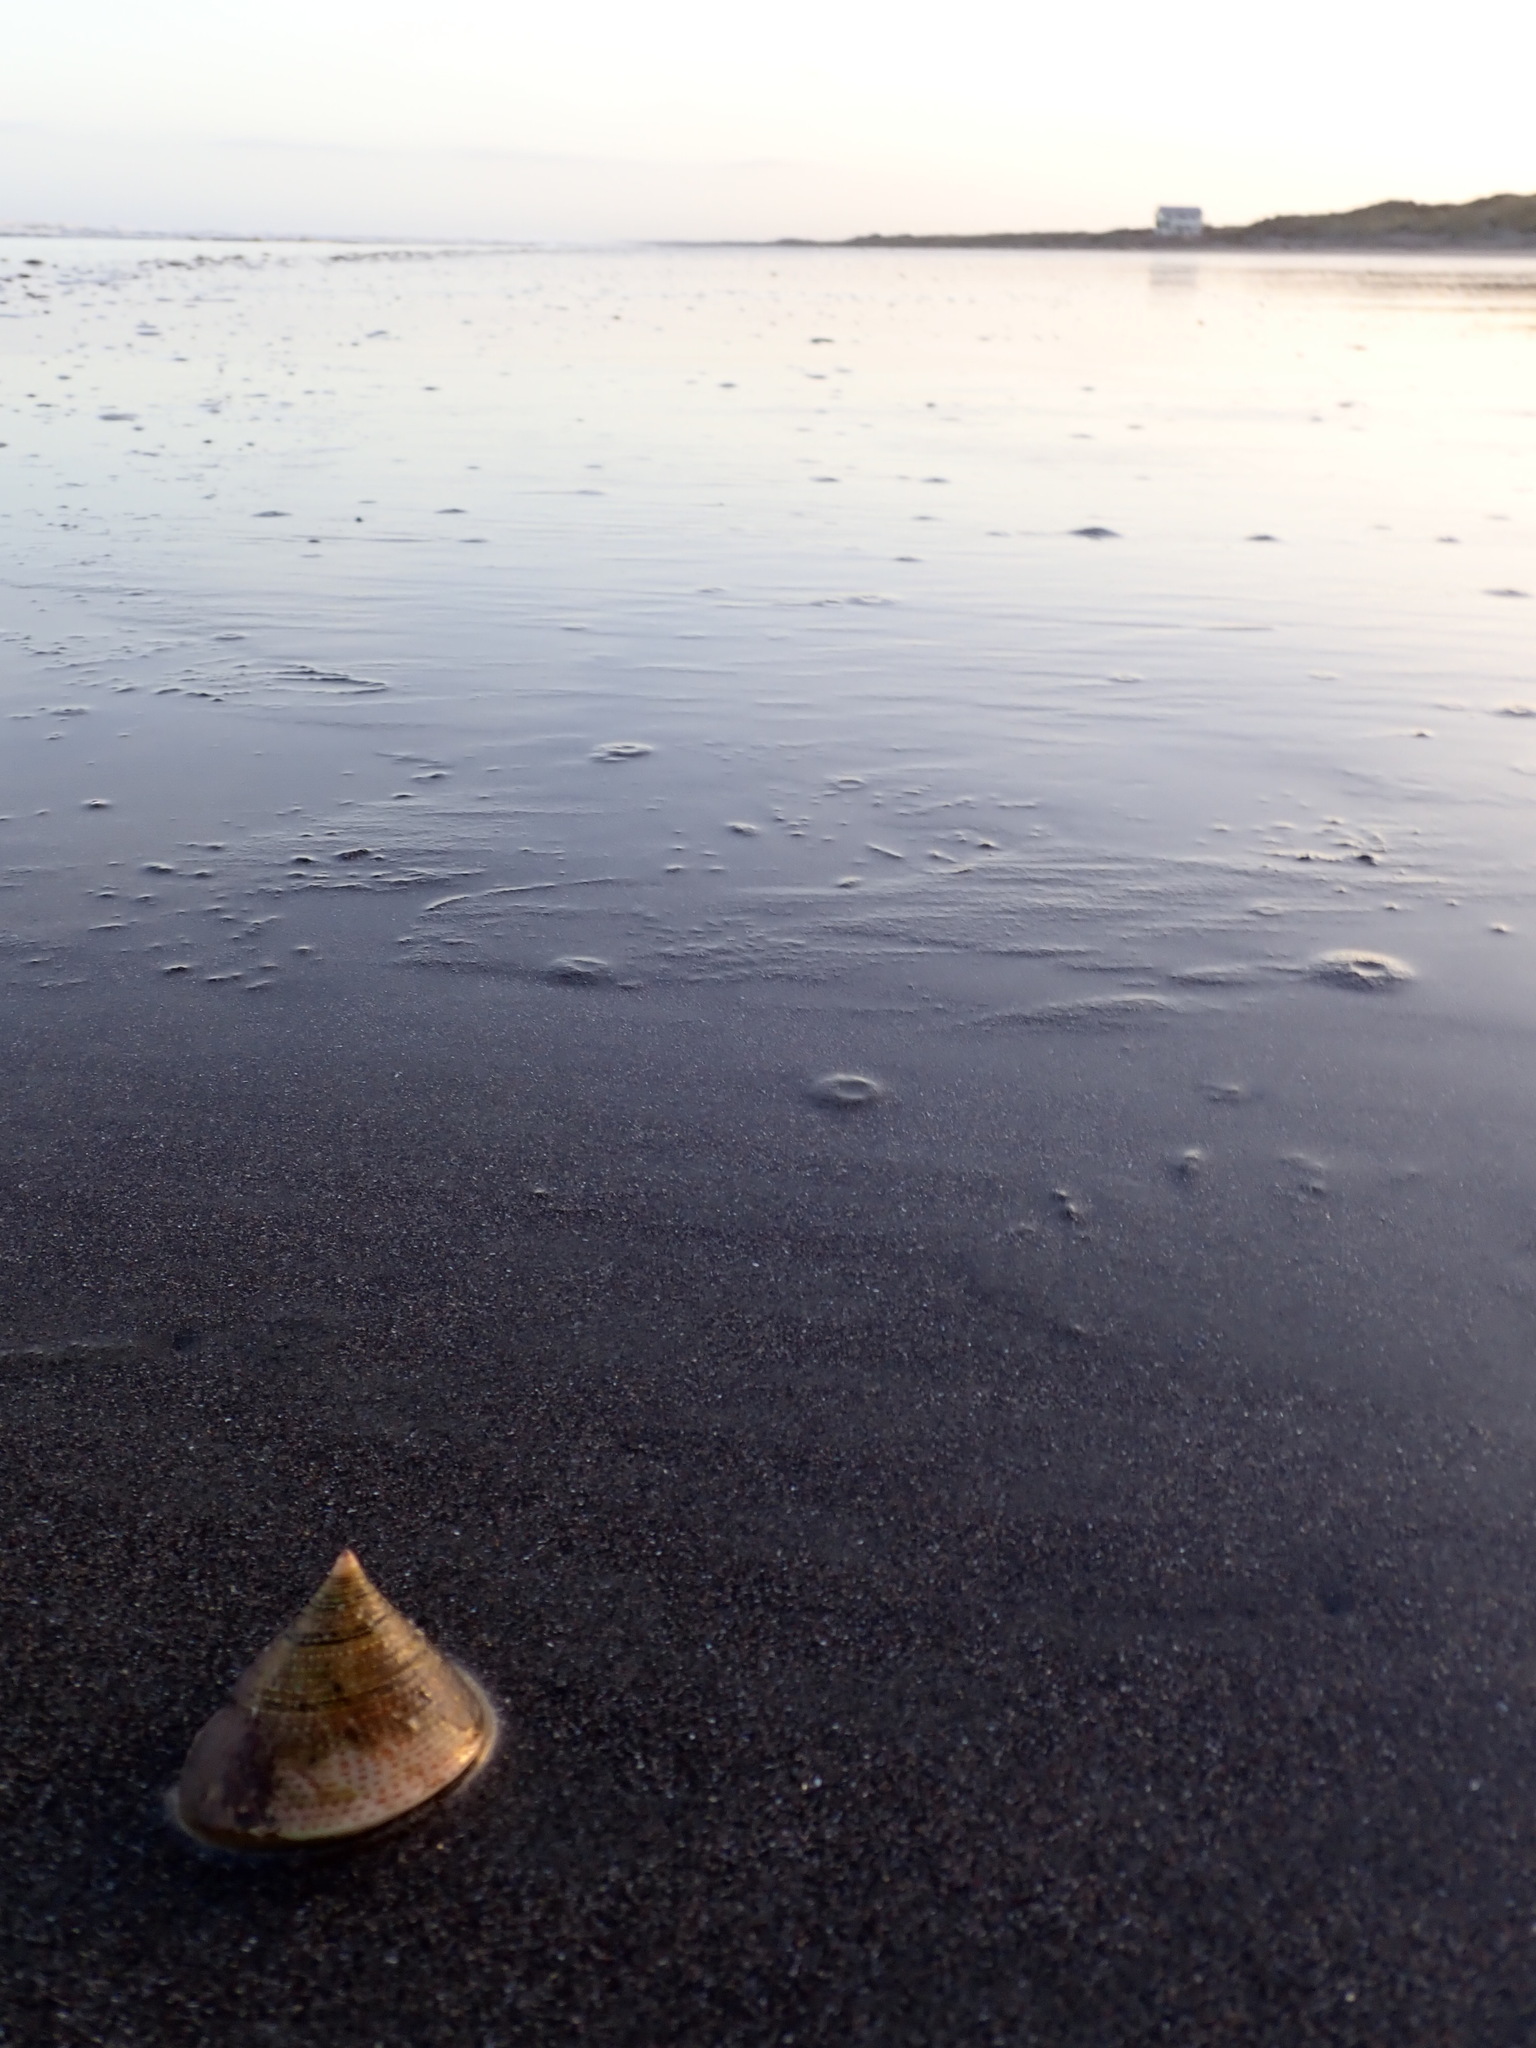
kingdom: Animalia
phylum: Mollusca
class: Gastropoda
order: Trochida
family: Calliostomatidae
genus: Maurea
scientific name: Maurea selecta
